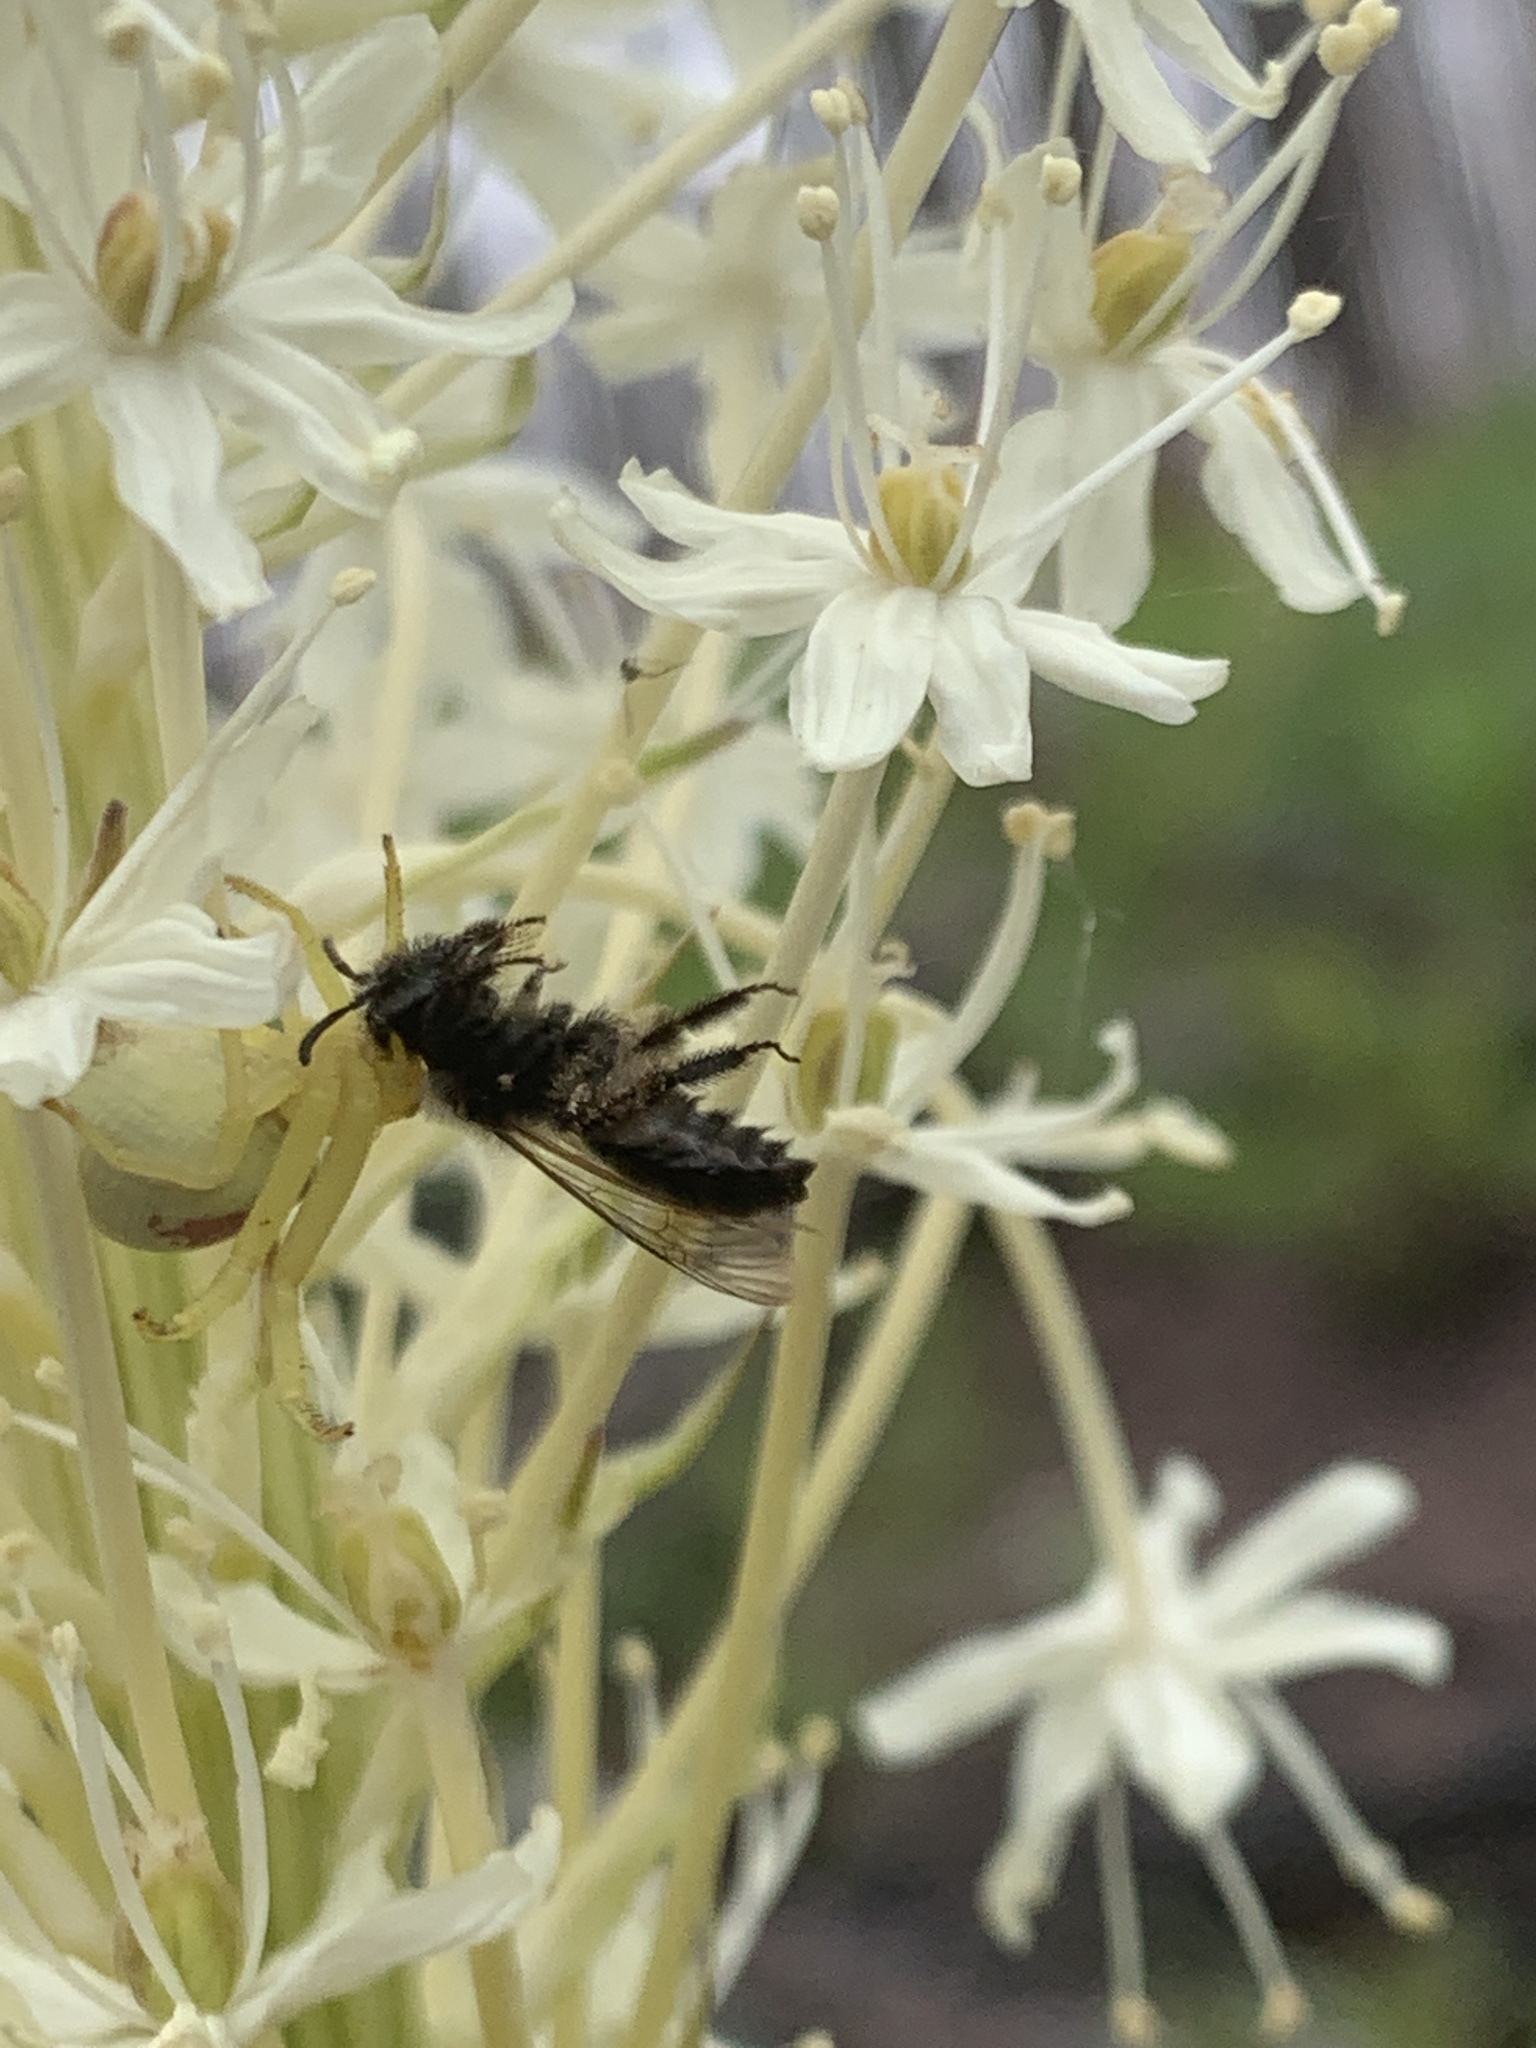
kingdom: Animalia
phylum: Arthropoda
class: Arachnida
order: Araneae
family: Thomisidae
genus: Misumena
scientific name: Misumena vatia
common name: Goldenrod crab spider
